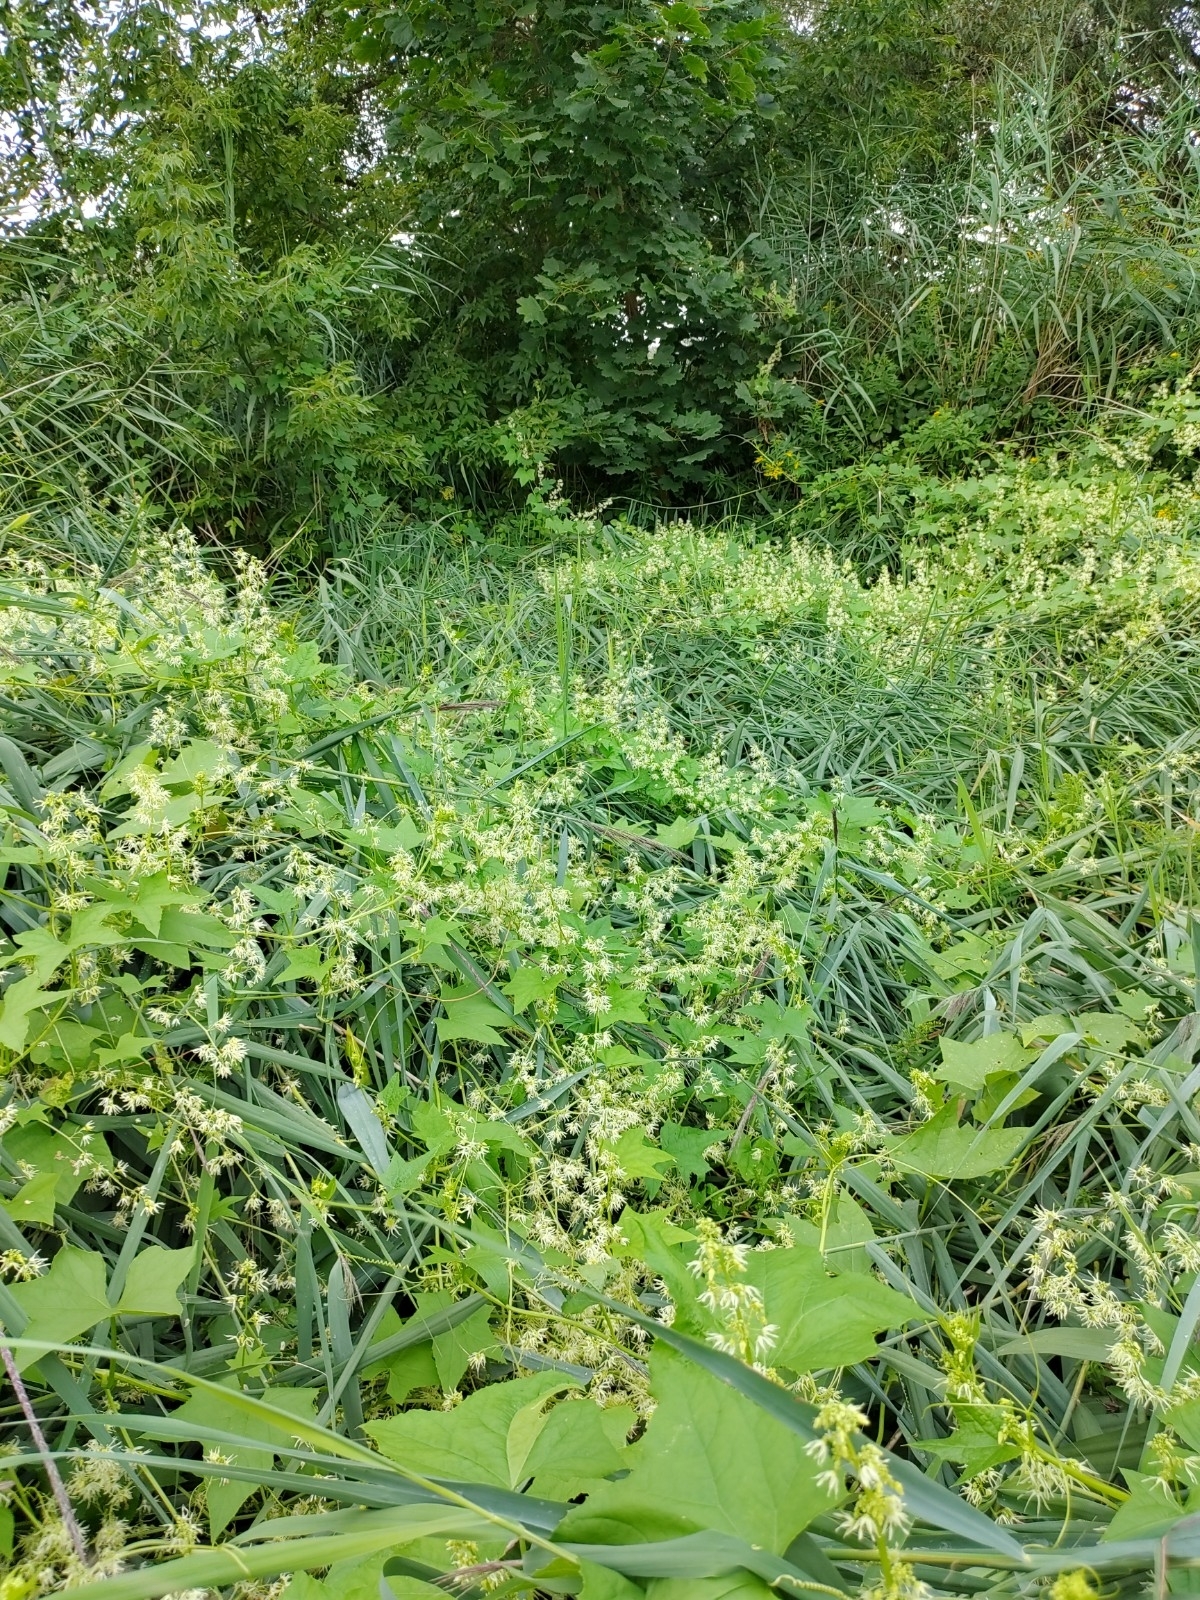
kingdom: Plantae
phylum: Tracheophyta
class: Magnoliopsida
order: Cucurbitales
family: Cucurbitaceae
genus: Echinocystis
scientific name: Echinocystis lobata
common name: Wild cucumber
